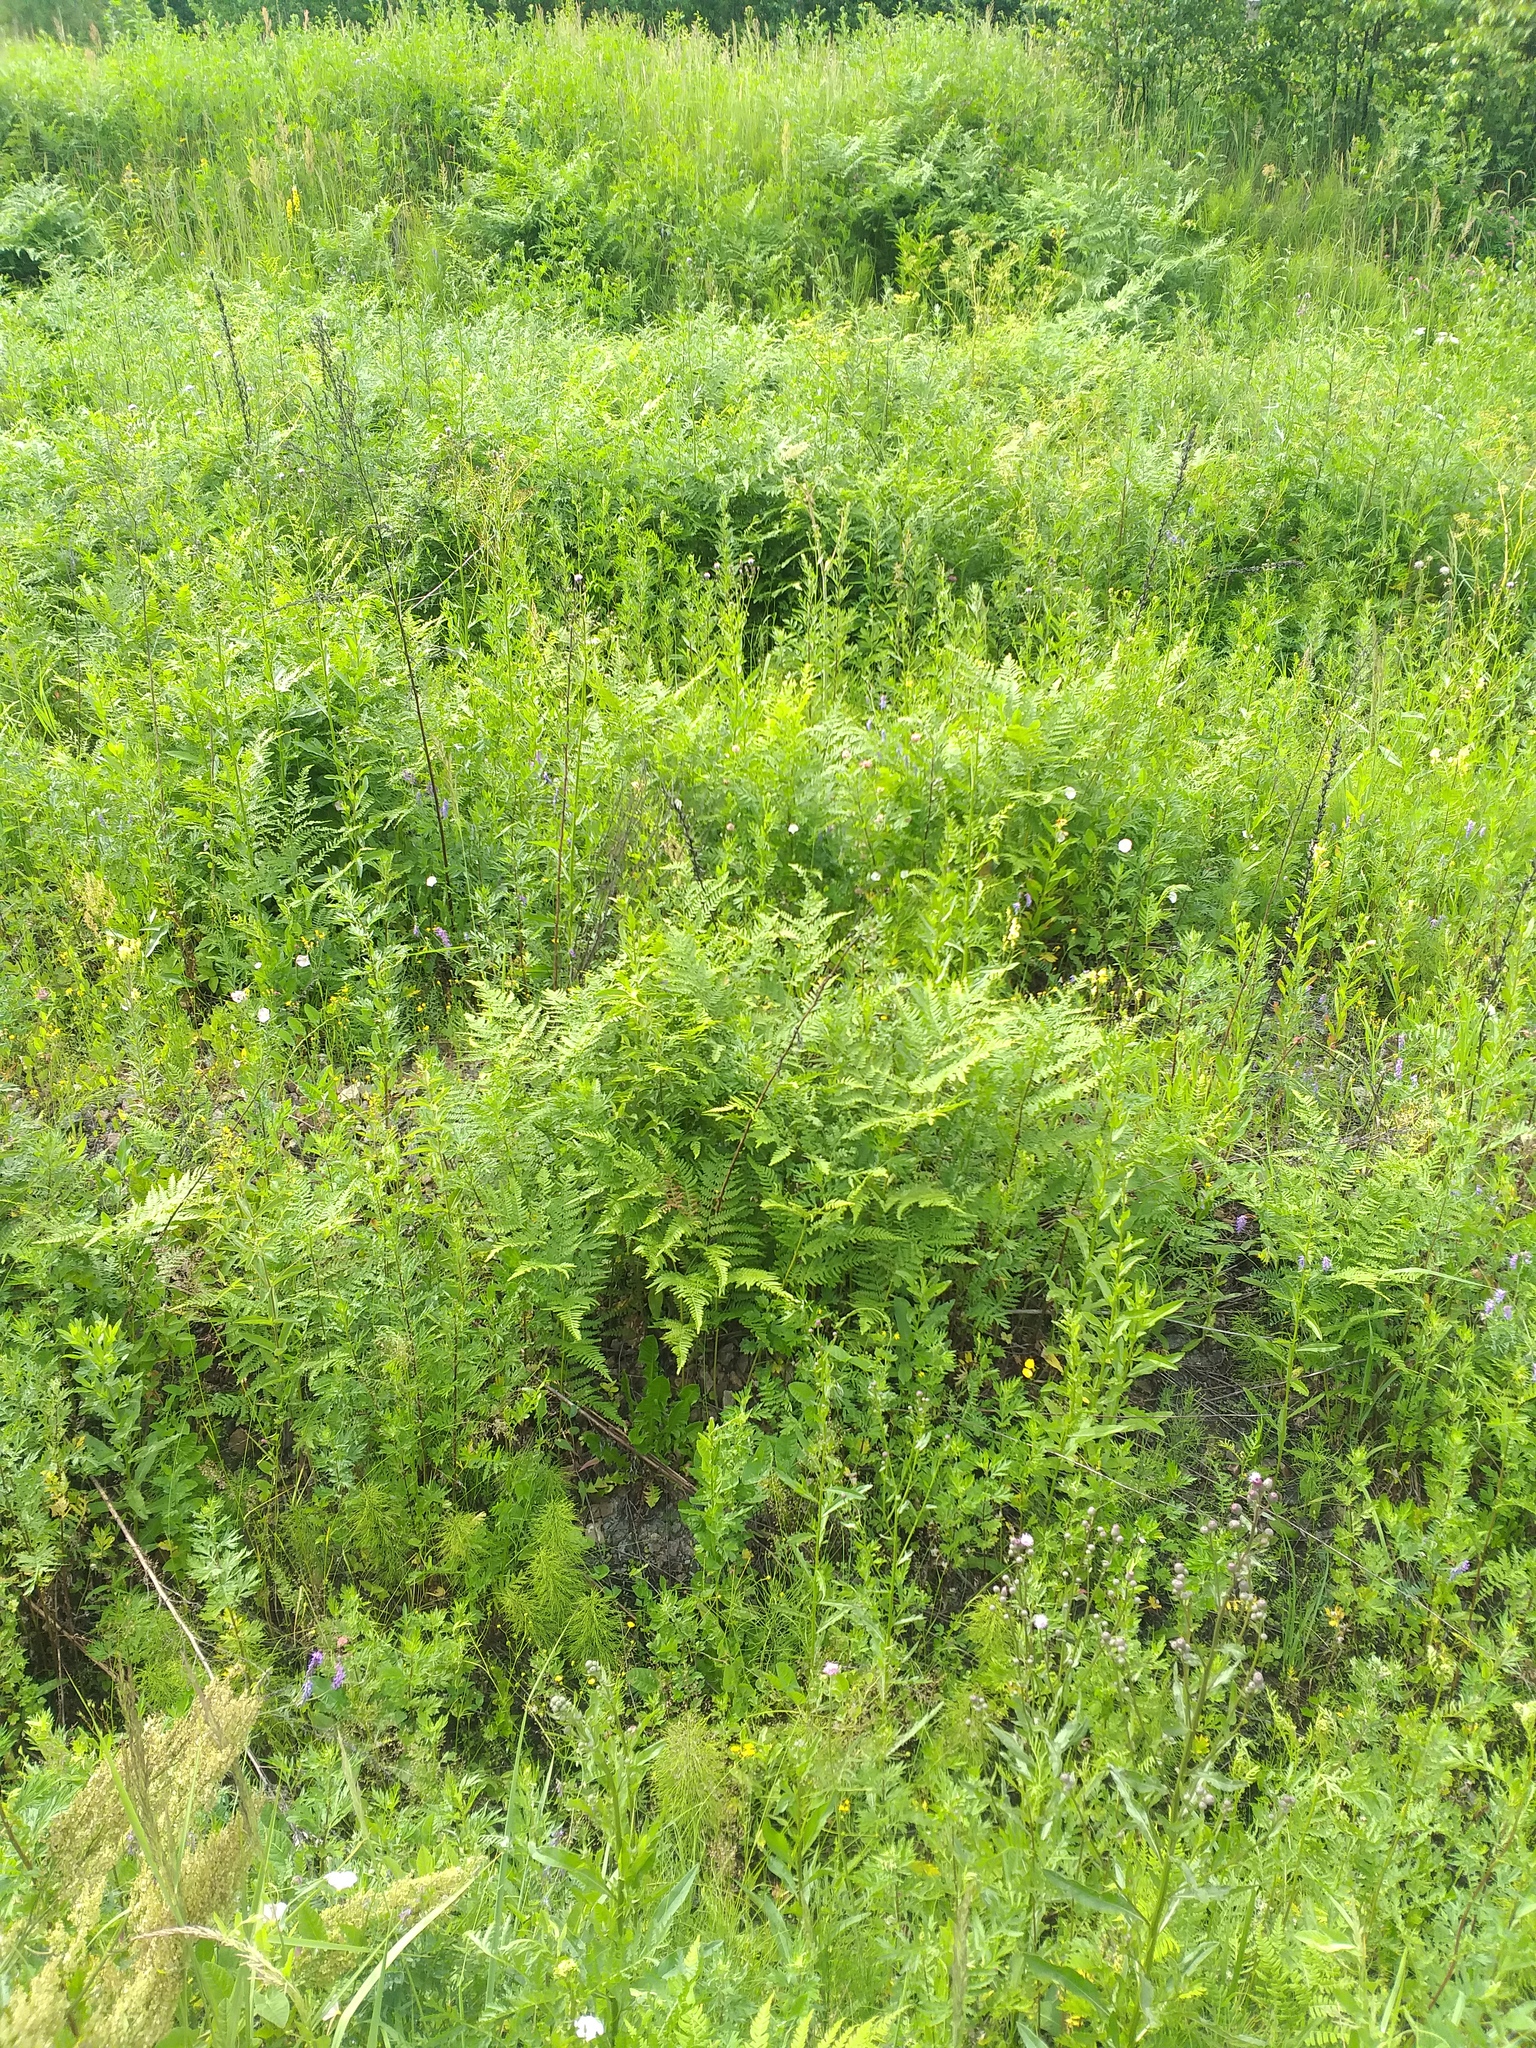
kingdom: Plantae
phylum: Tracheophyta
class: Polypodiopsida
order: Polypodiales
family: Dennstaedtiaceae
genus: Pteridium
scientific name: Pteridium aquilinum
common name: Bracken
